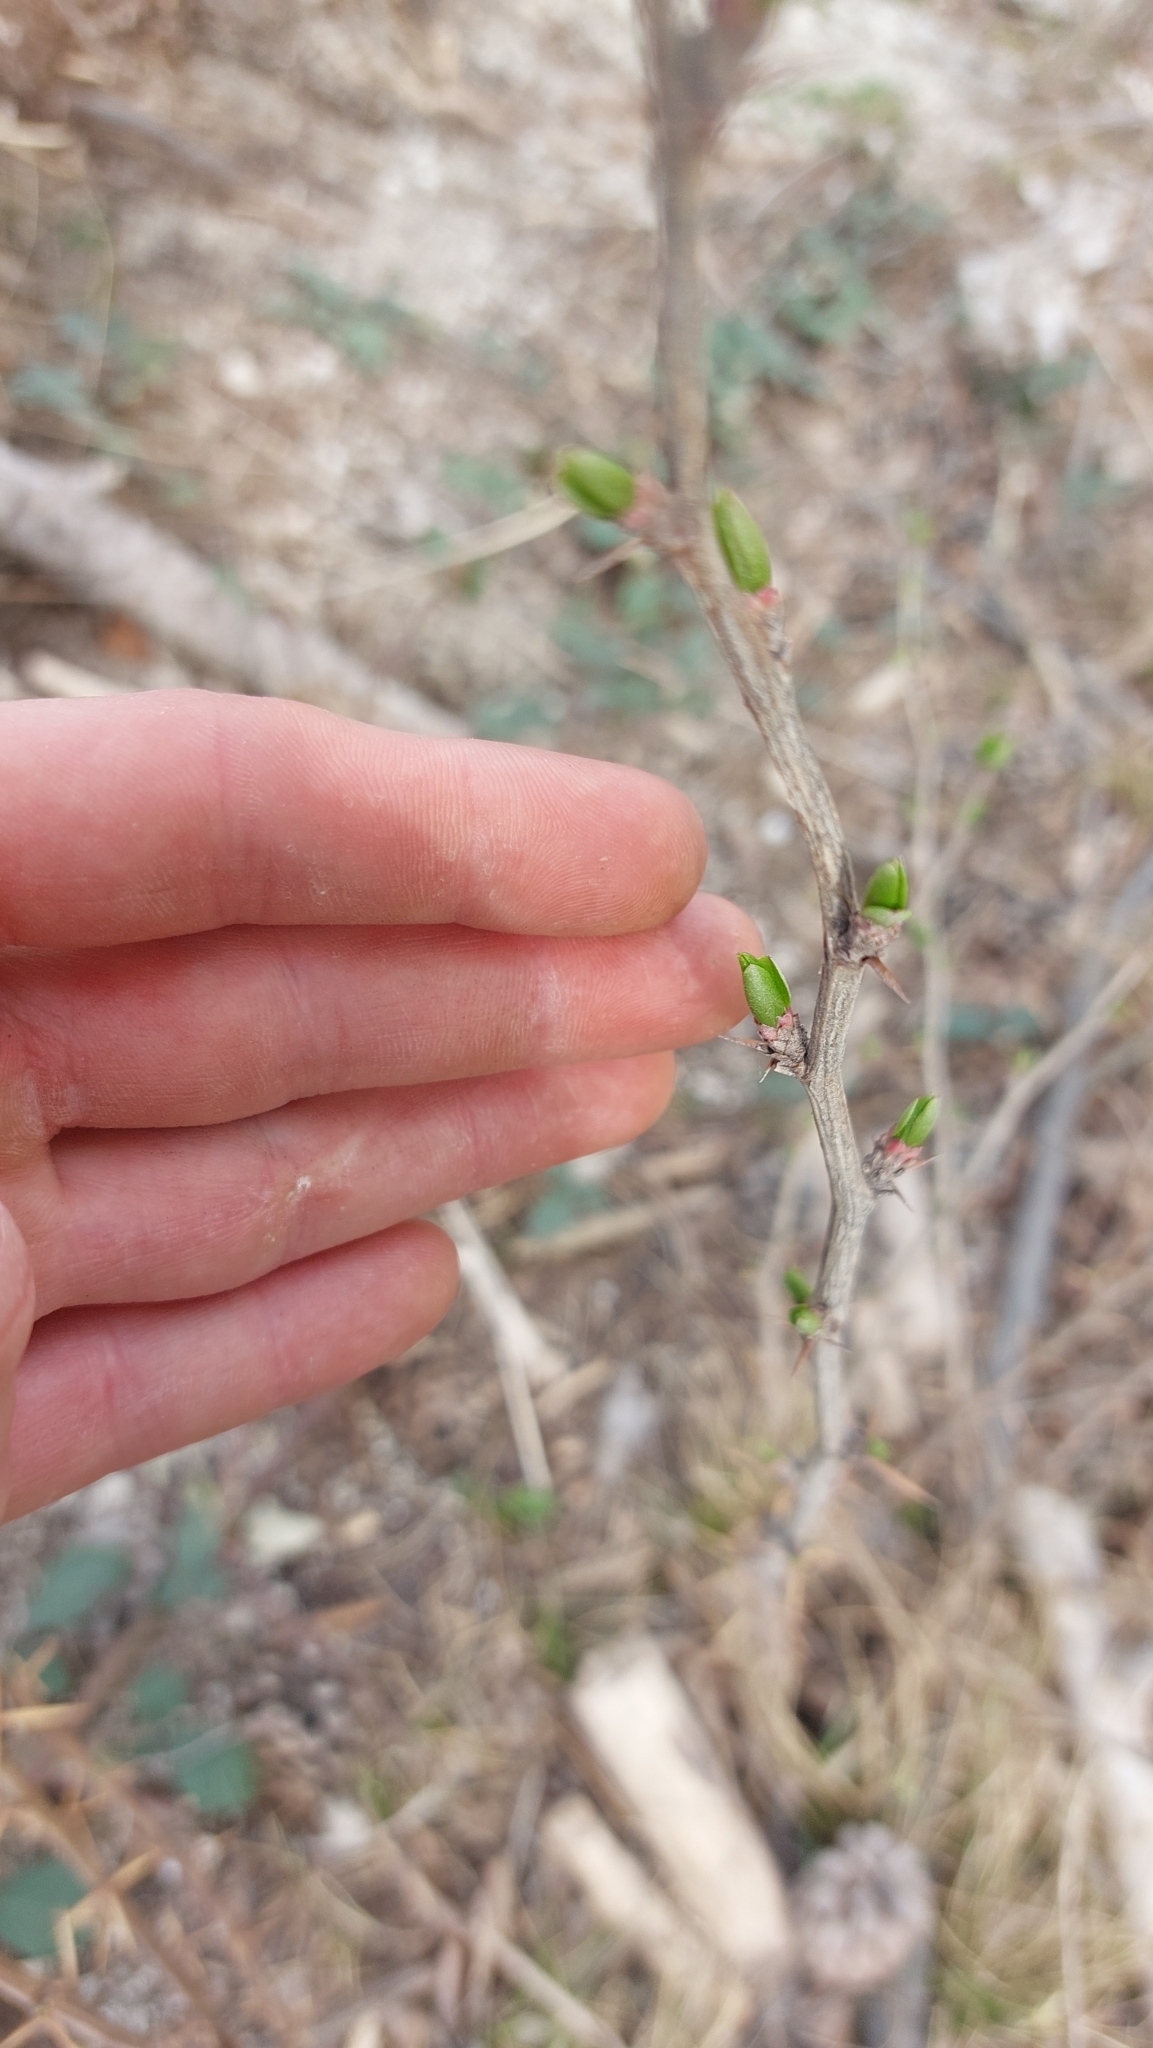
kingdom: Plantae
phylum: Tracheophyta
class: Magnoliopsida
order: Ranunculales
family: Berberidaceae
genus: Berberis
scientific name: Berberis vulgaris
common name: Barberry
